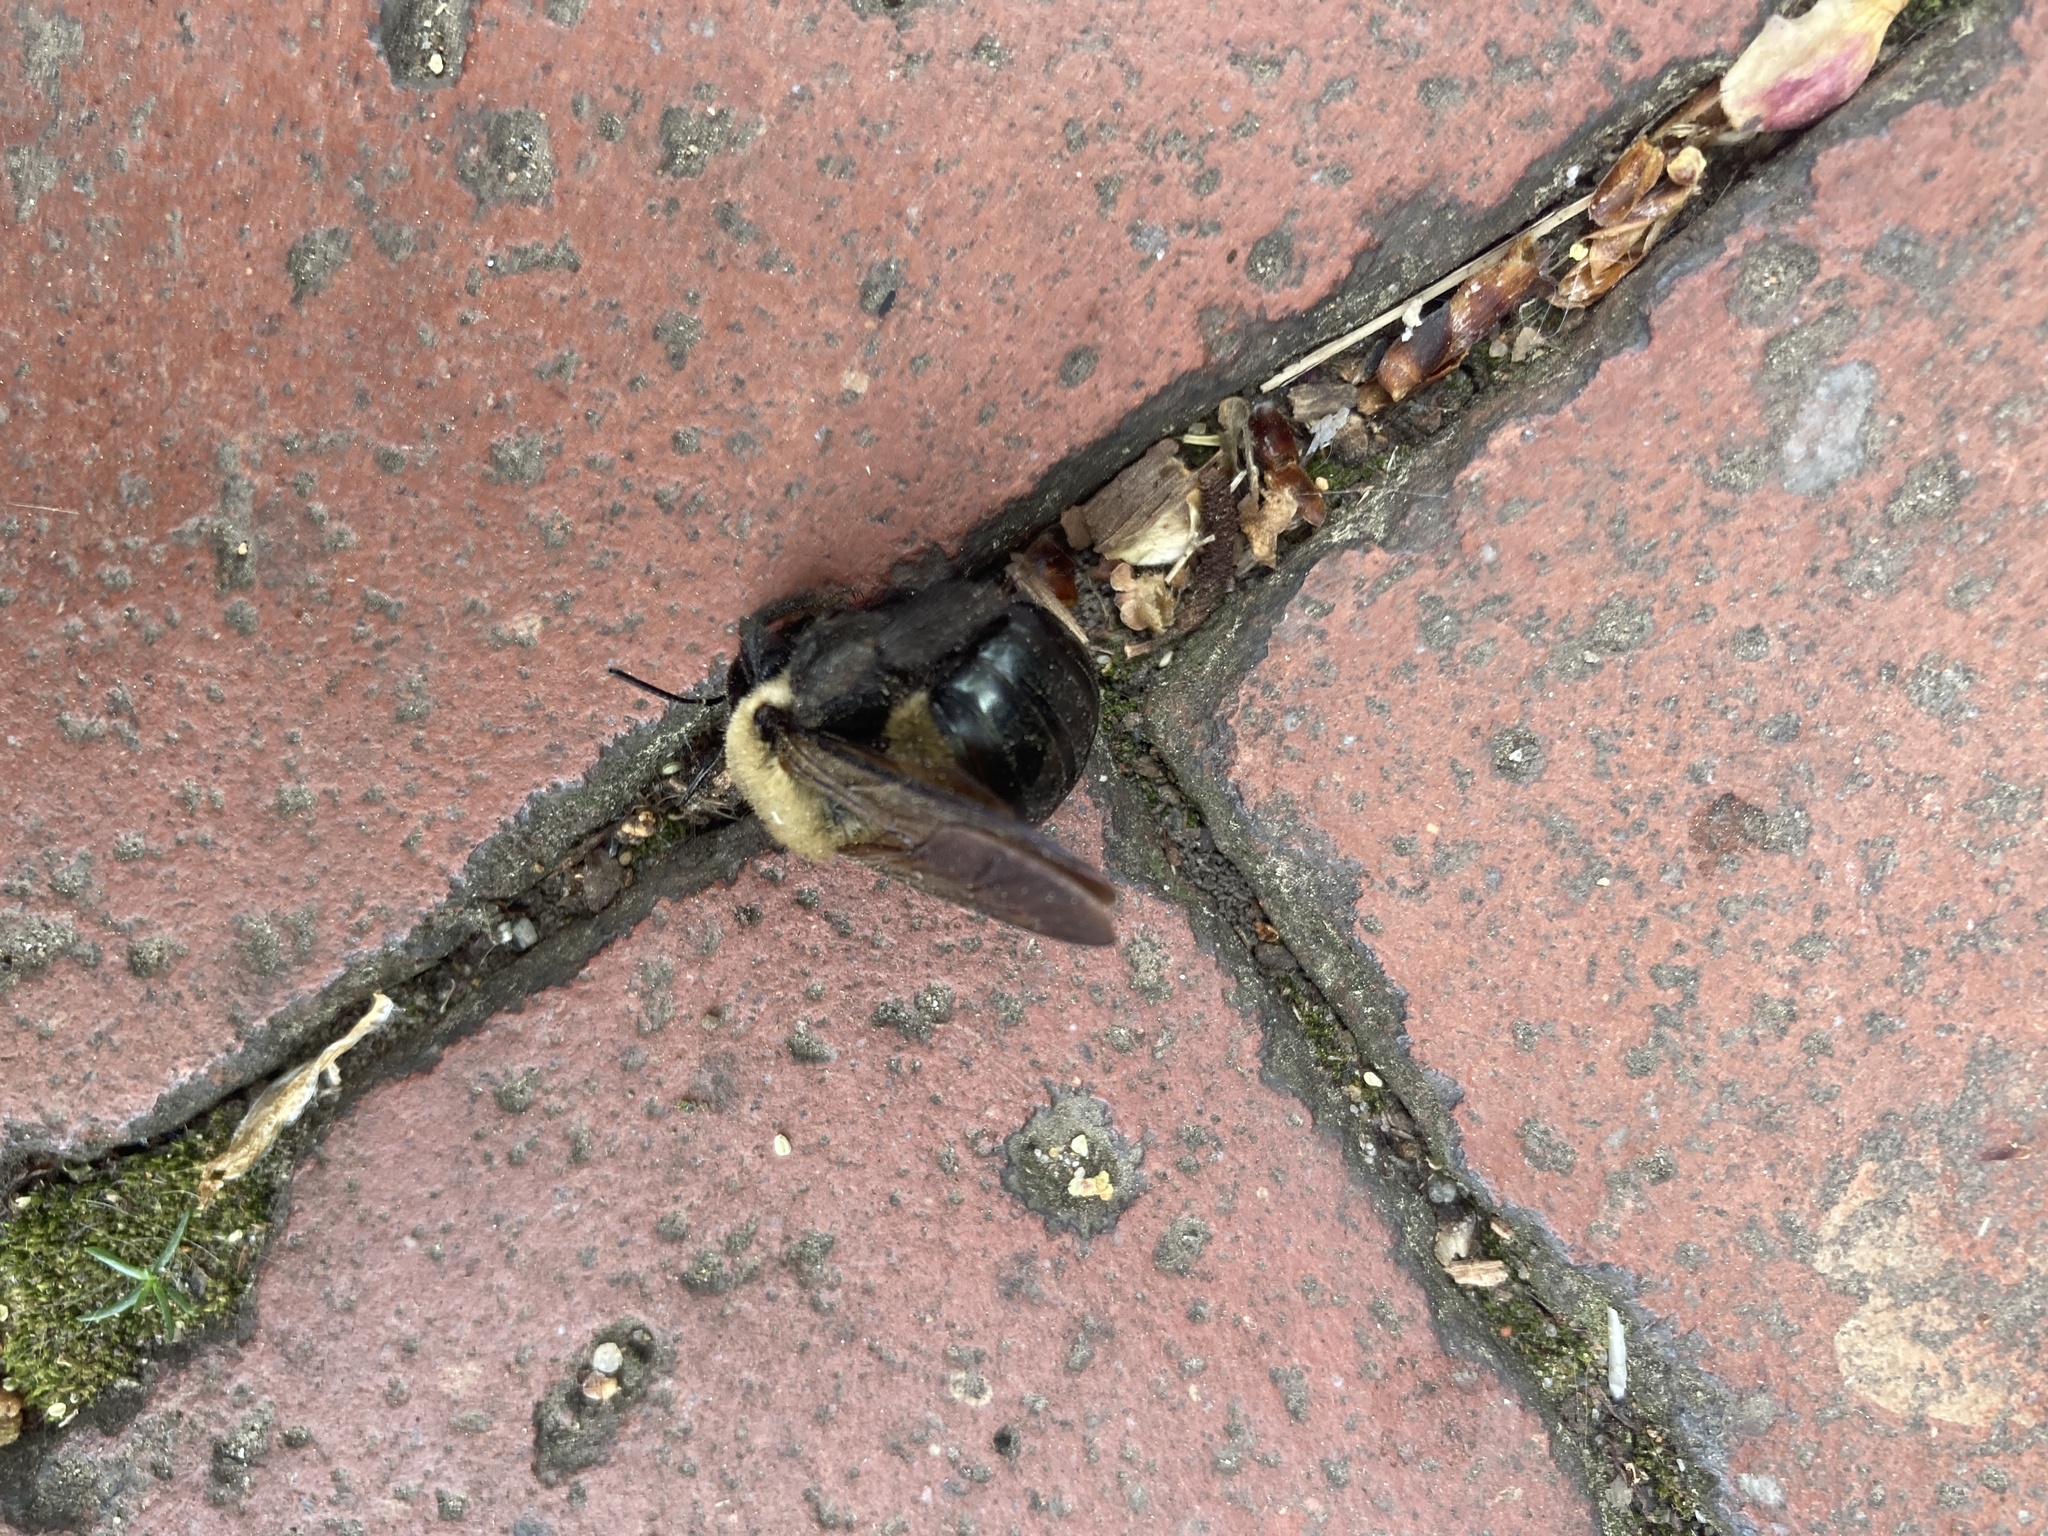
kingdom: Animalia
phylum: Arthropoda
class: Insecta
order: Hymenoptera
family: Apidae
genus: Xylocopa
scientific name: Xylocopa virginica
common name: Carpenter bee
